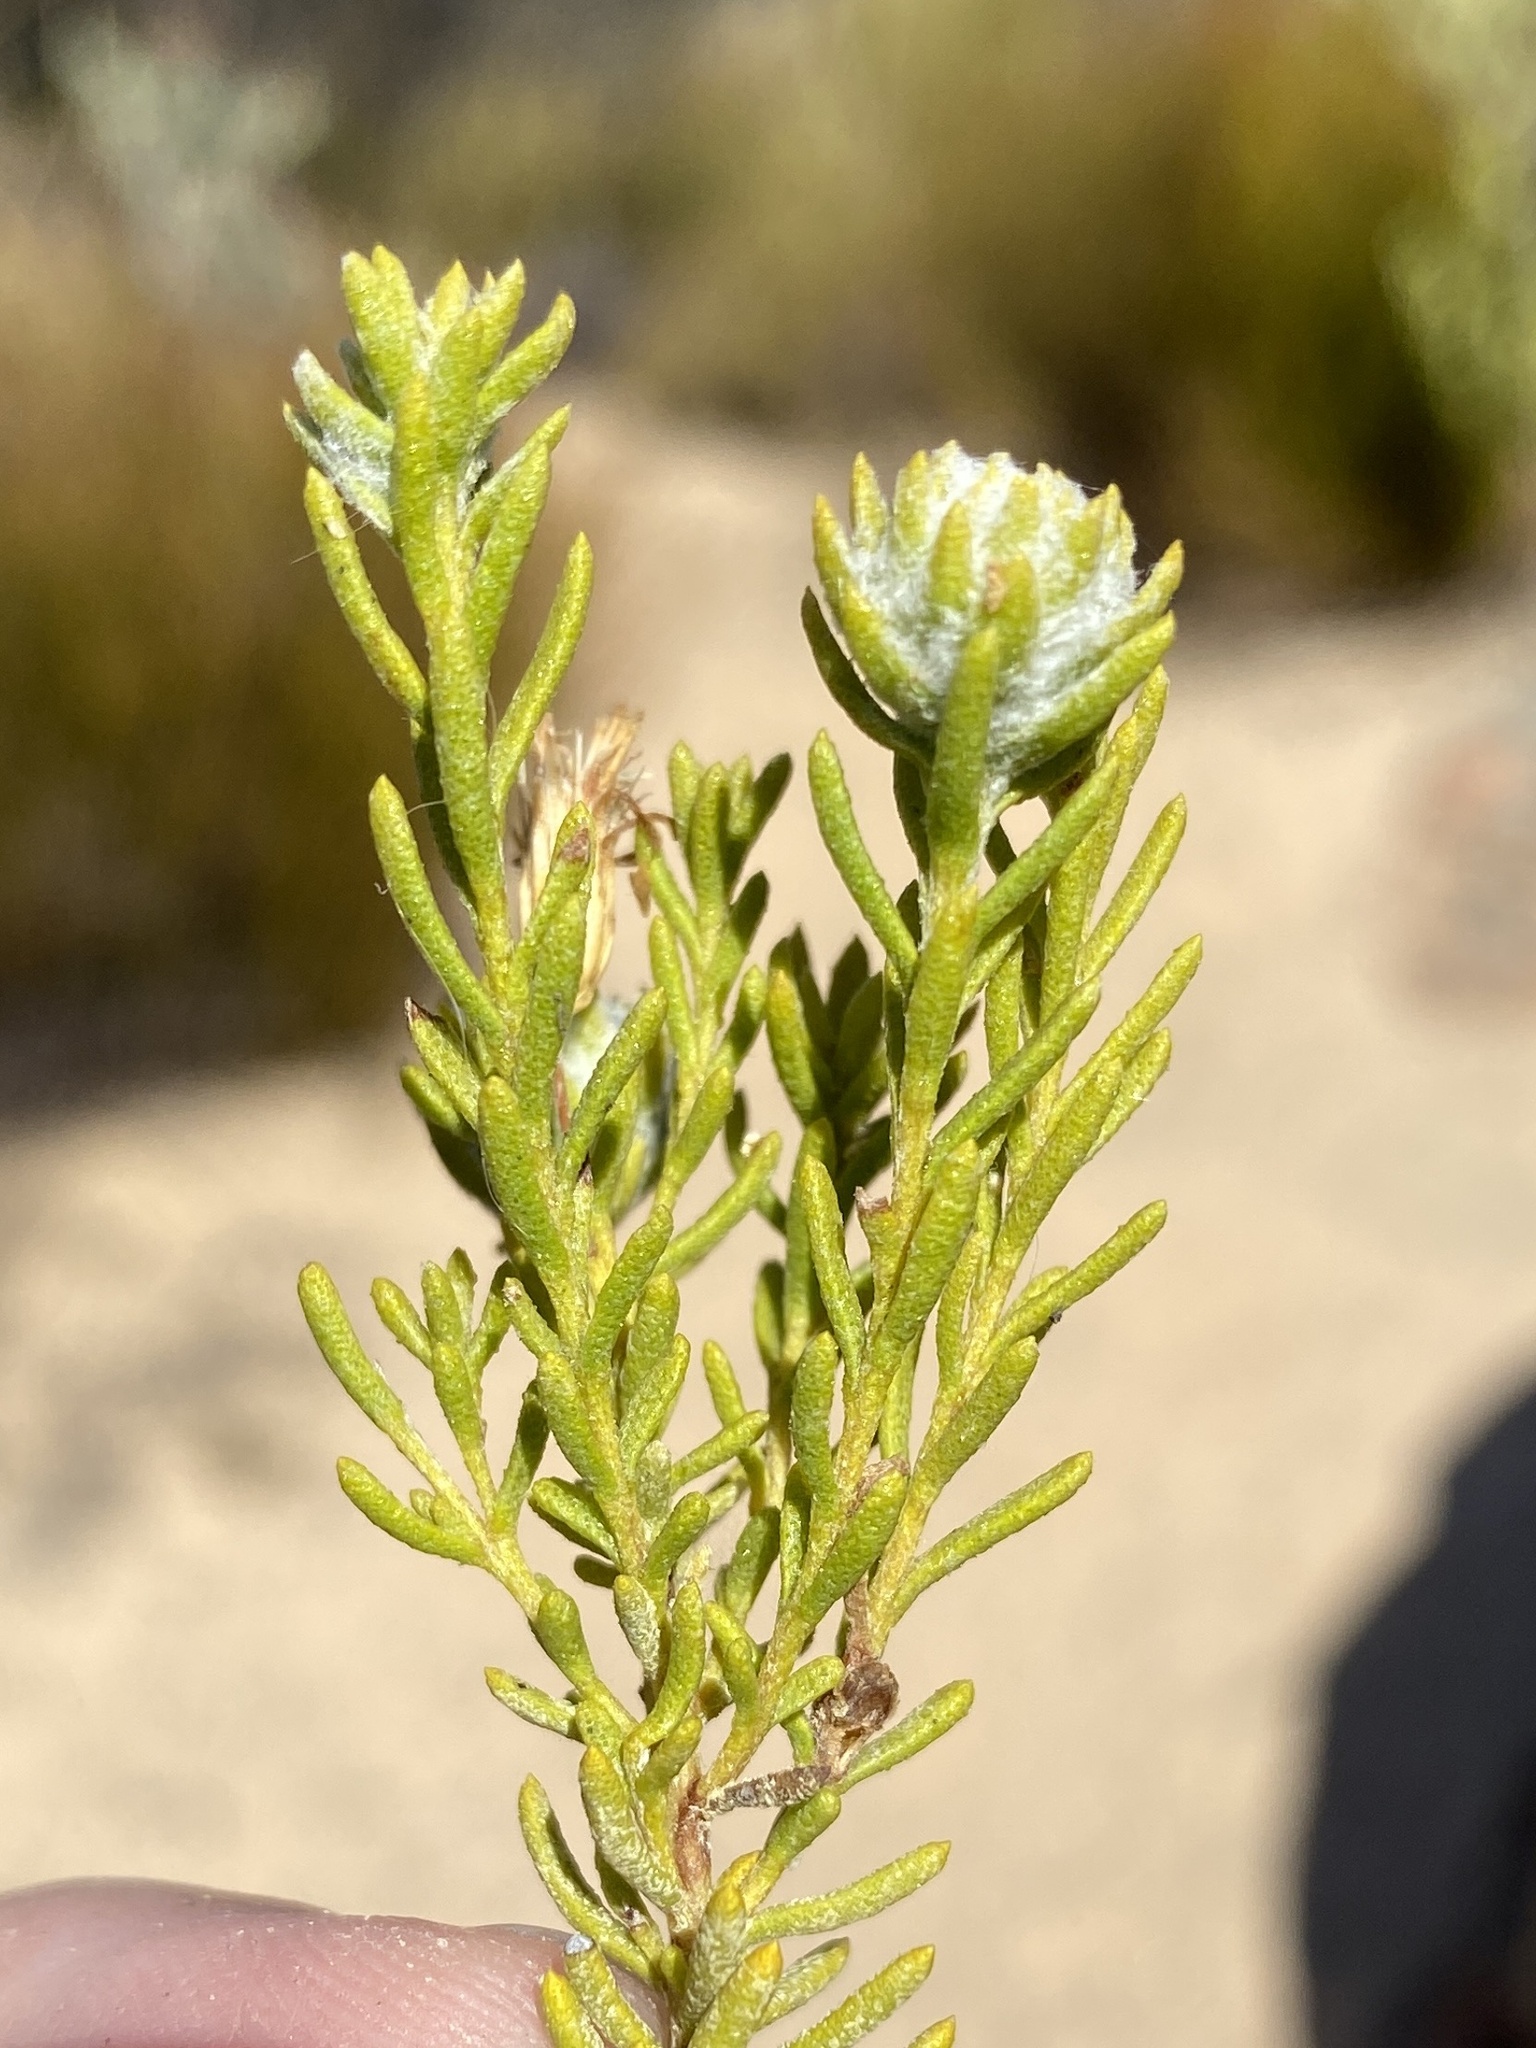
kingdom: Plantae
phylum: Tracheophyta
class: Magnoliopsida
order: Asterales
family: Asteraceae
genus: Oedera
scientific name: Oedera sedifolia
